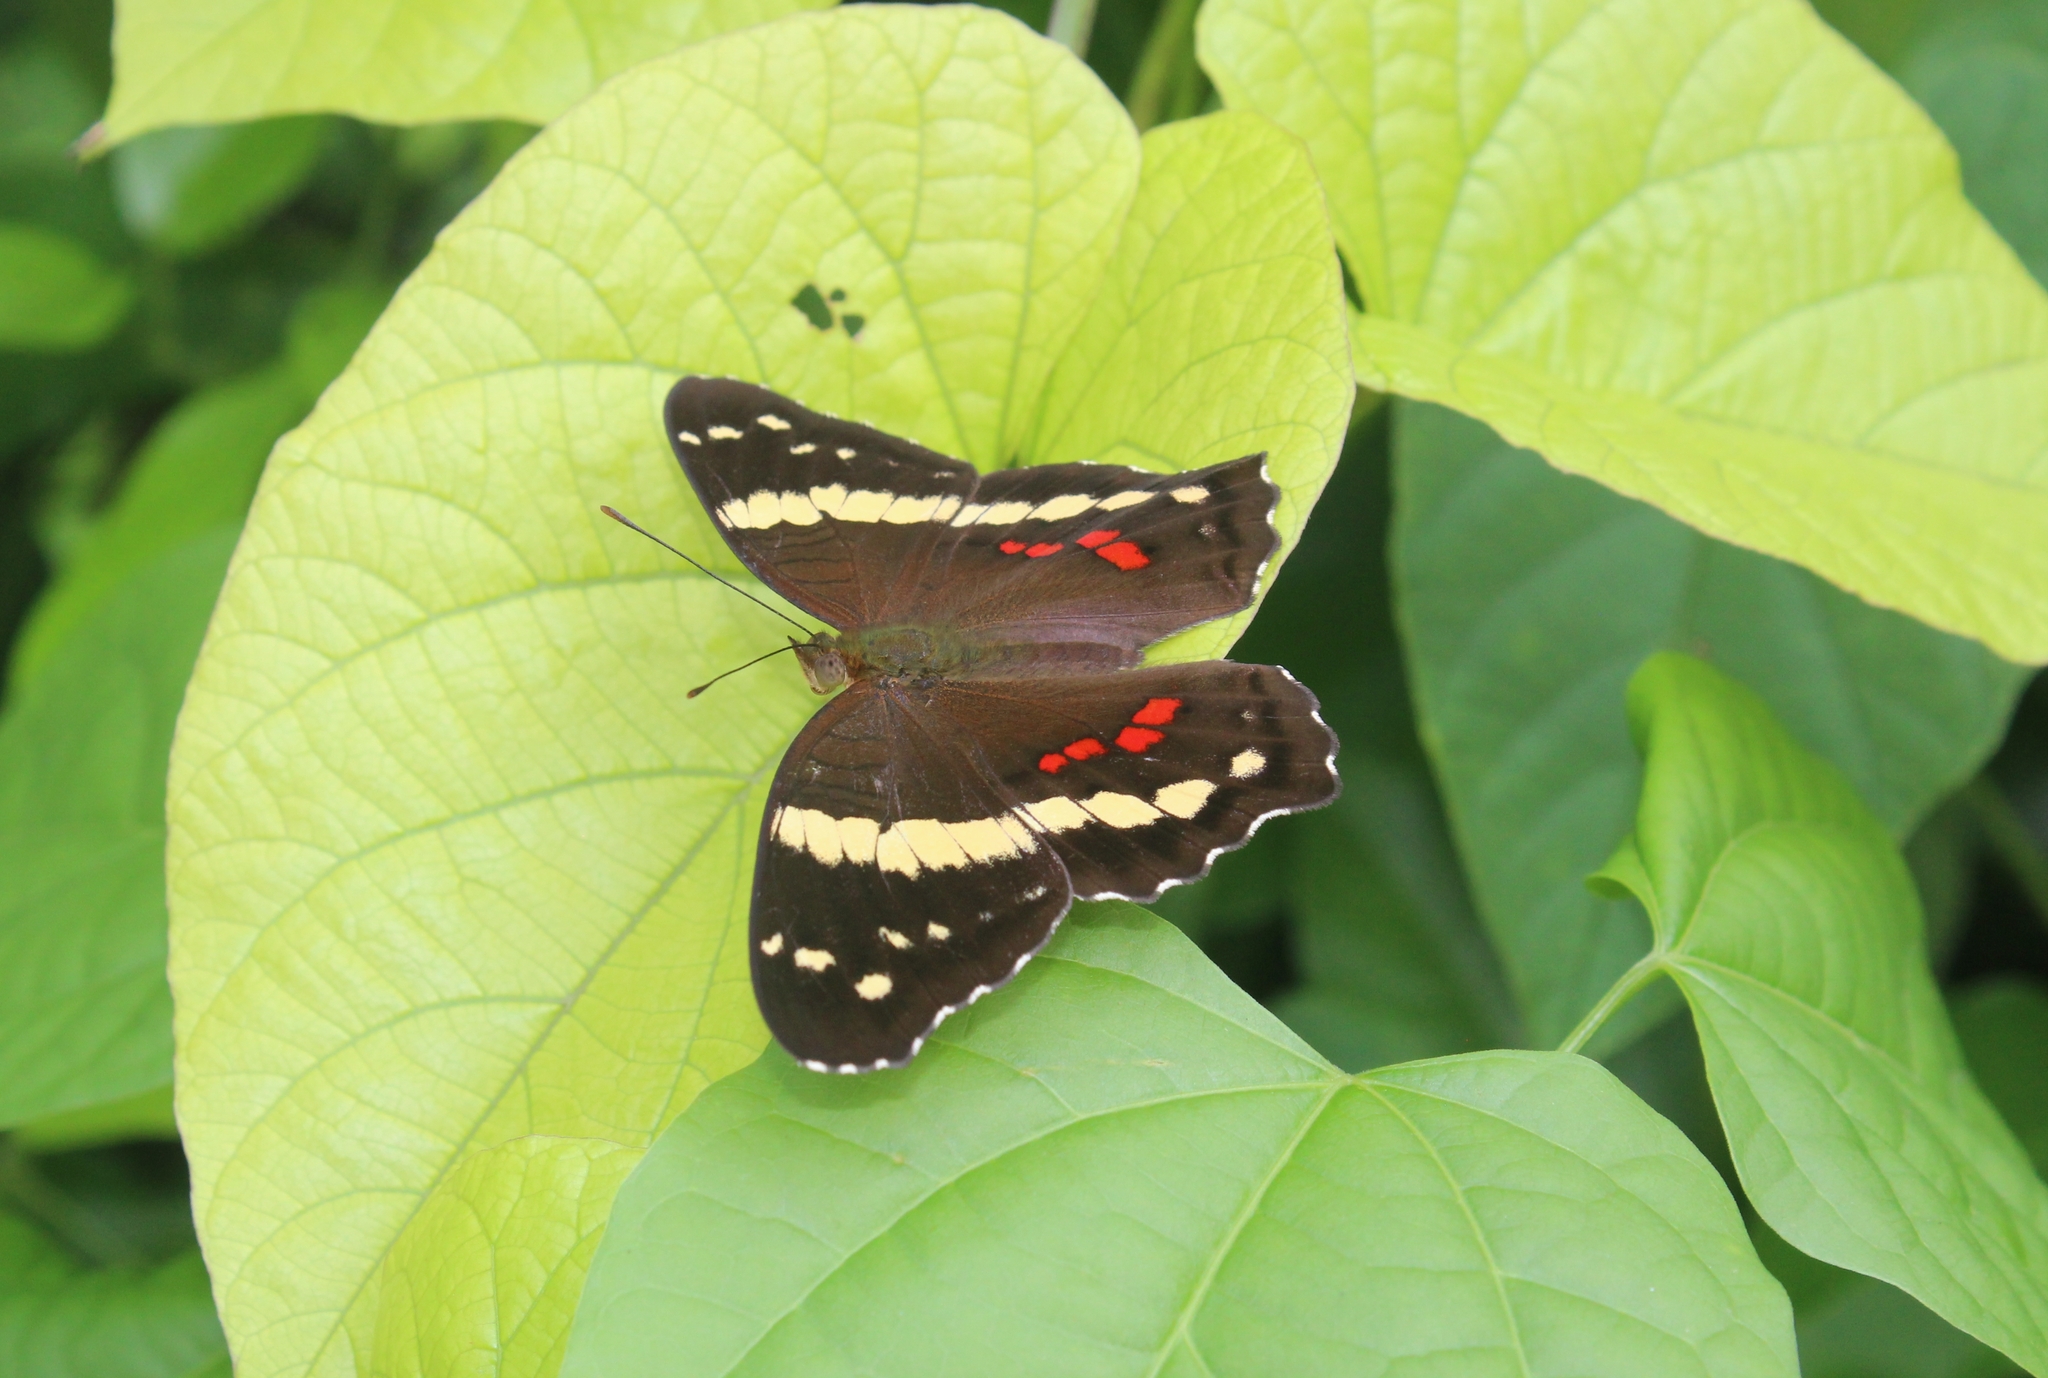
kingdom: Animalia
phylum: Arthropoda
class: Insecta
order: Lepidoptera
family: Nymphalidae
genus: Anartia
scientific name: Anartia fatima
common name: Banded peacock
